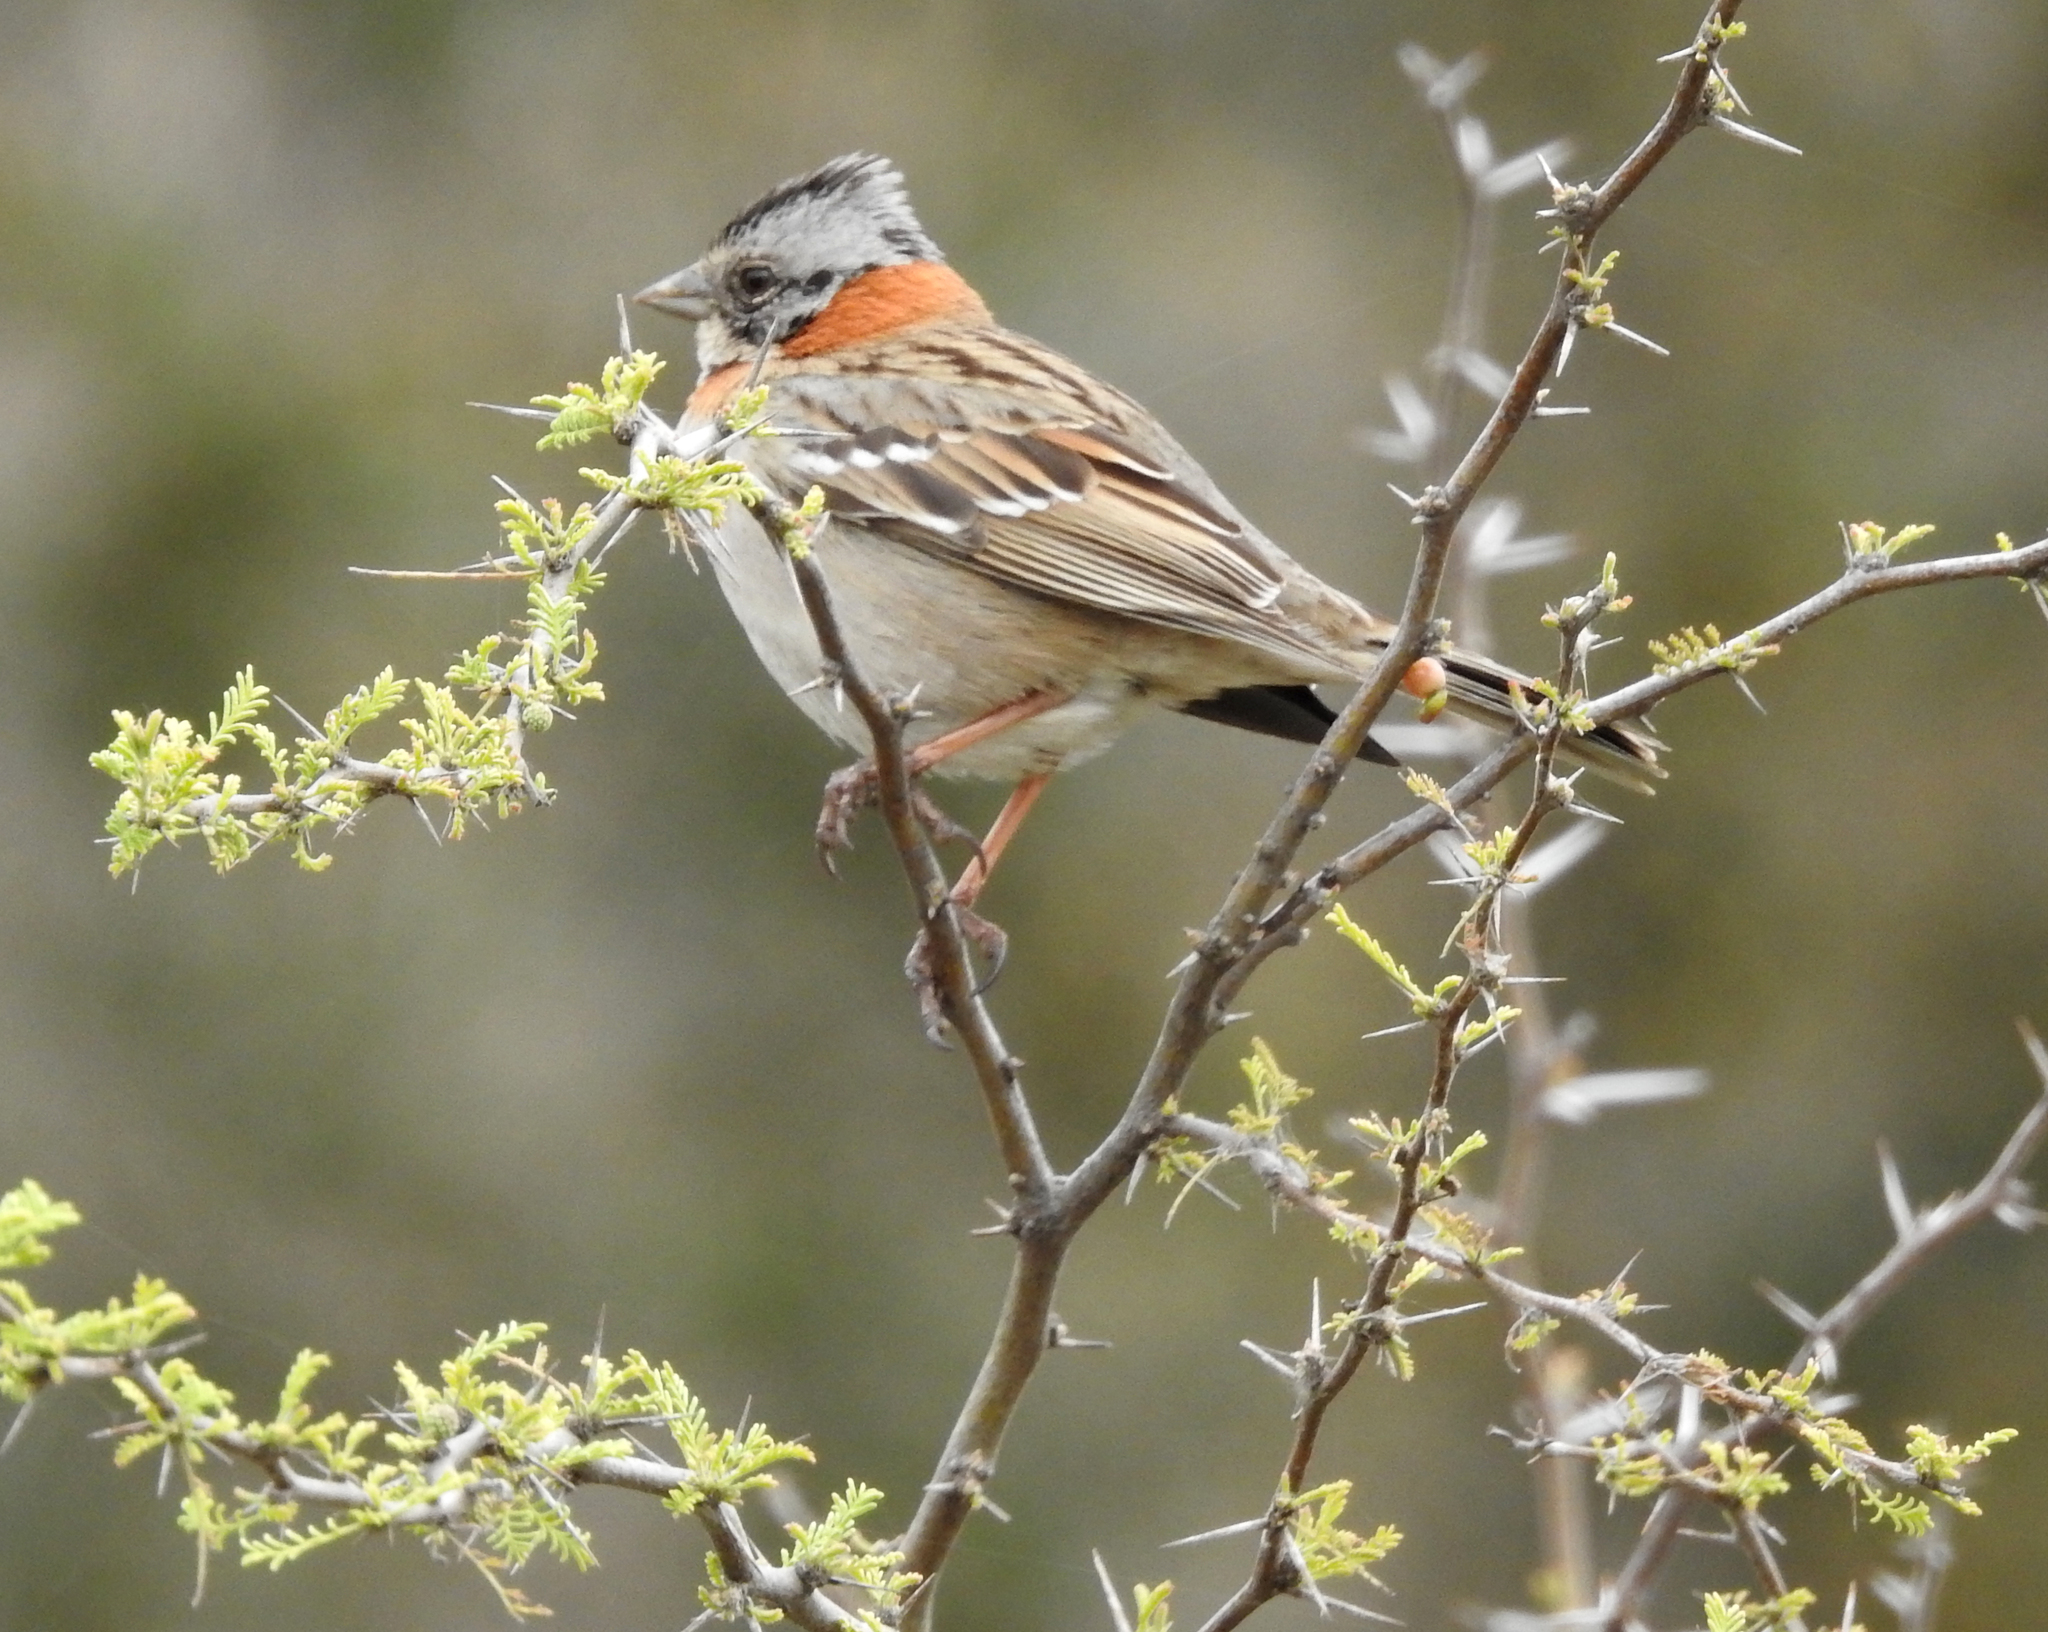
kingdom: Animalia
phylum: Chordata
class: Aves
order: Passeriformes
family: Passerellidae
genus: Zonotrichia
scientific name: Zonotrichia capensis
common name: Rufous-collared sparrow
